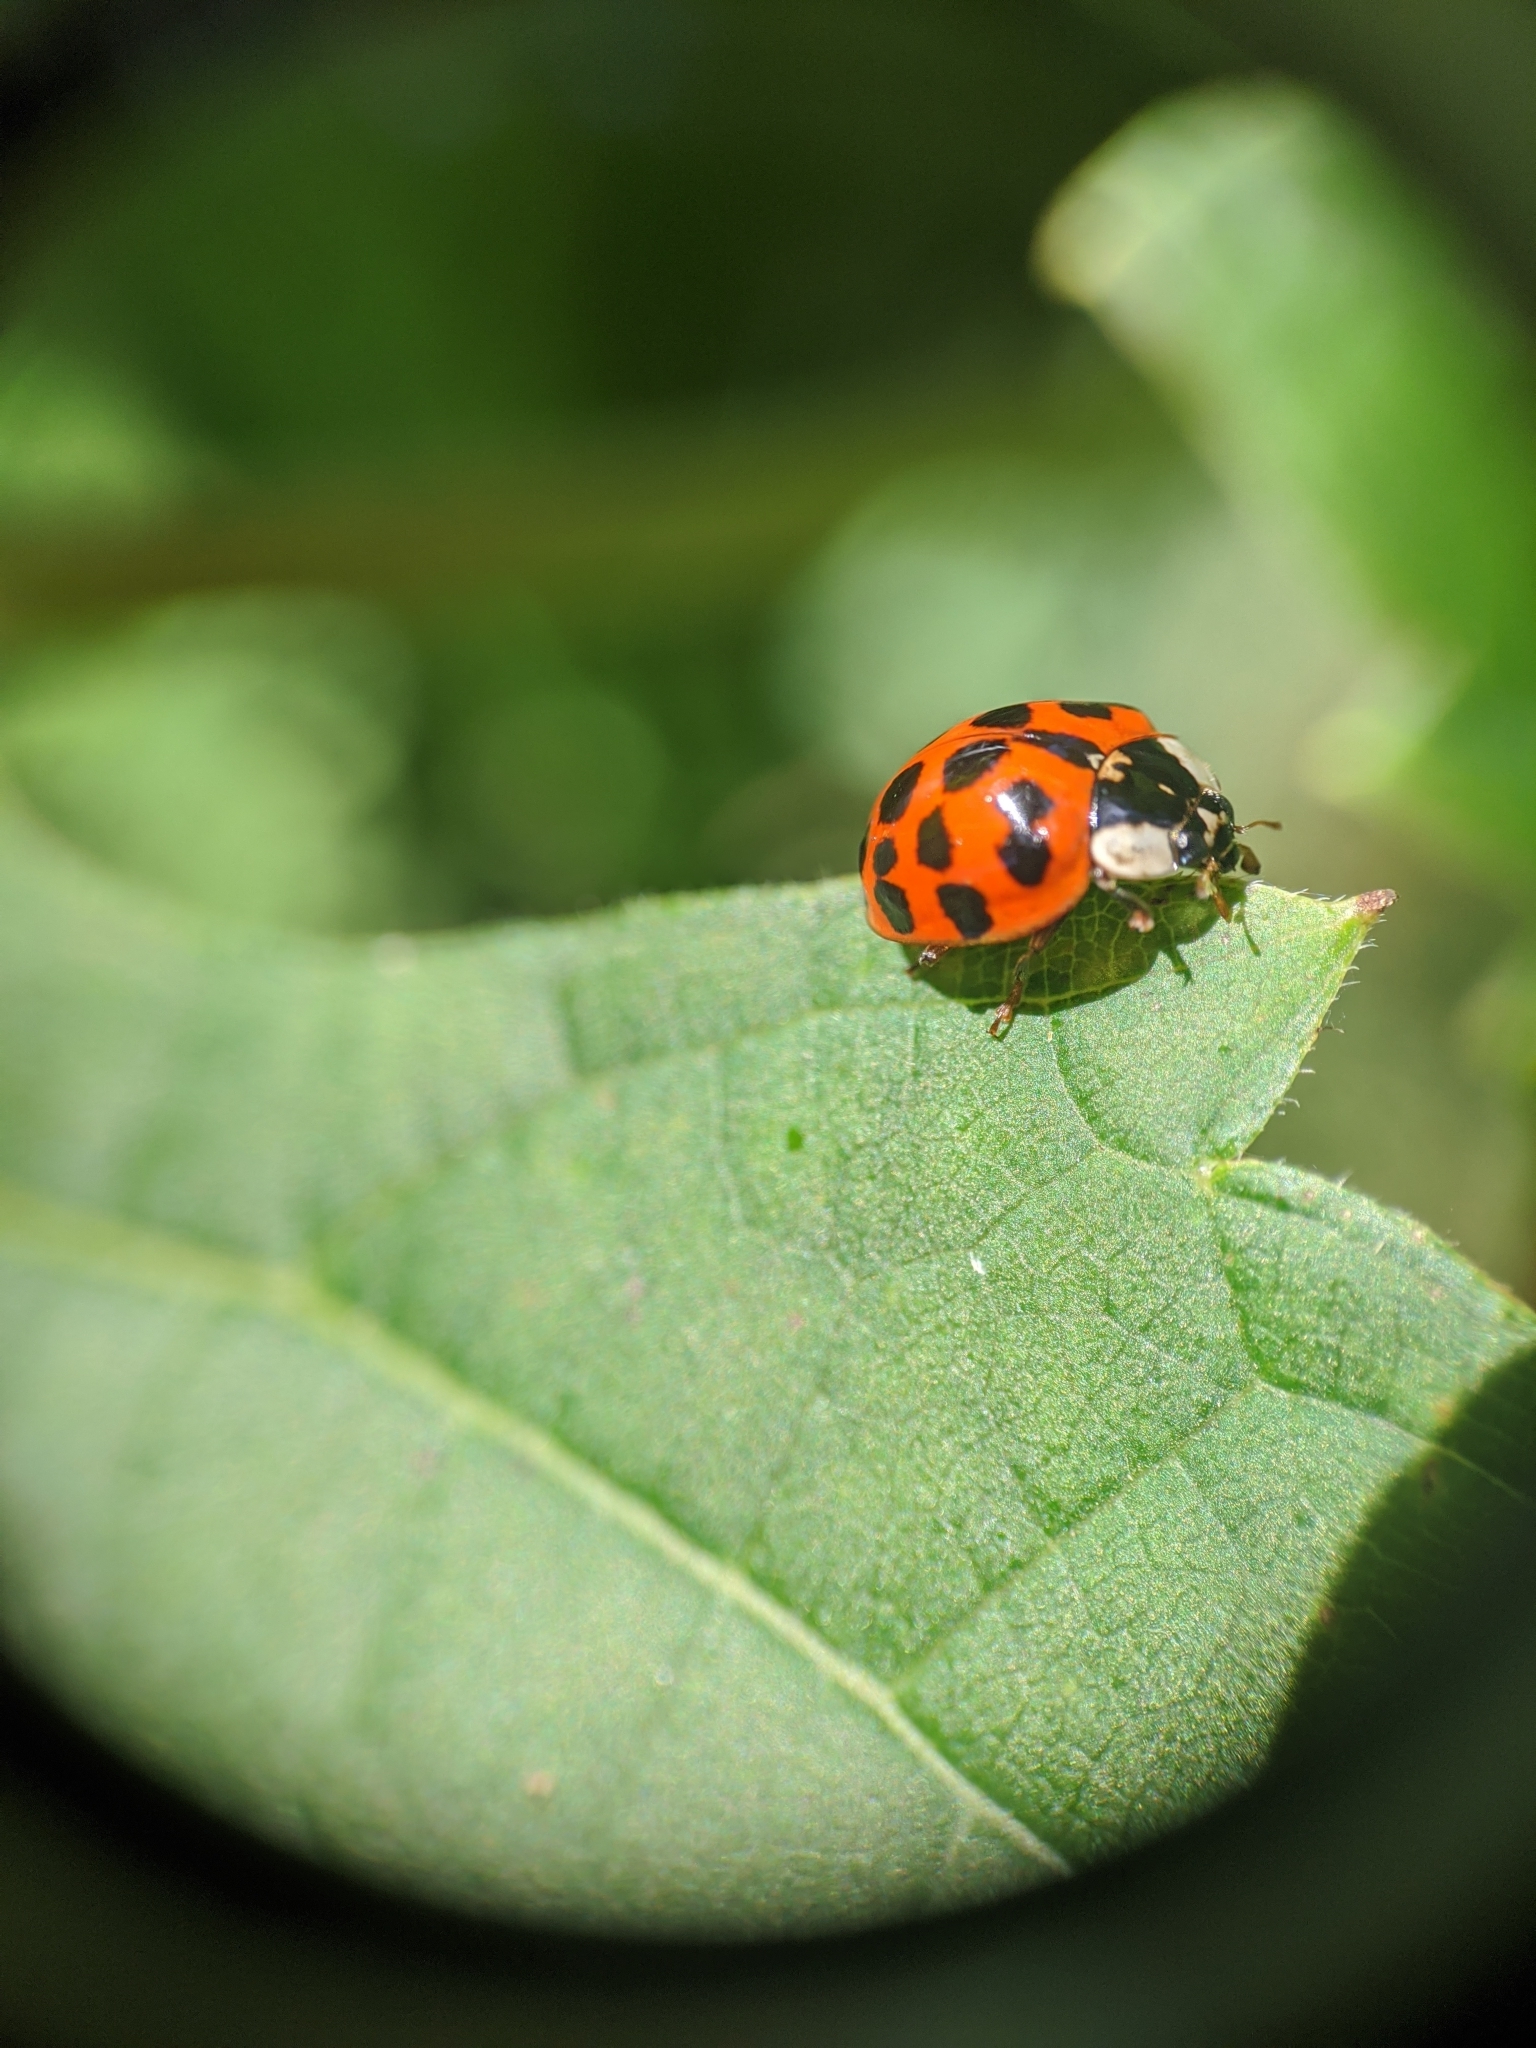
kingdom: Animalia
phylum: Arthropoda
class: Insecta
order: Coleoptera
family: Coccinellidae
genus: Harmonia
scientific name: Harmonia axyridis
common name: Harlequin ladybird
